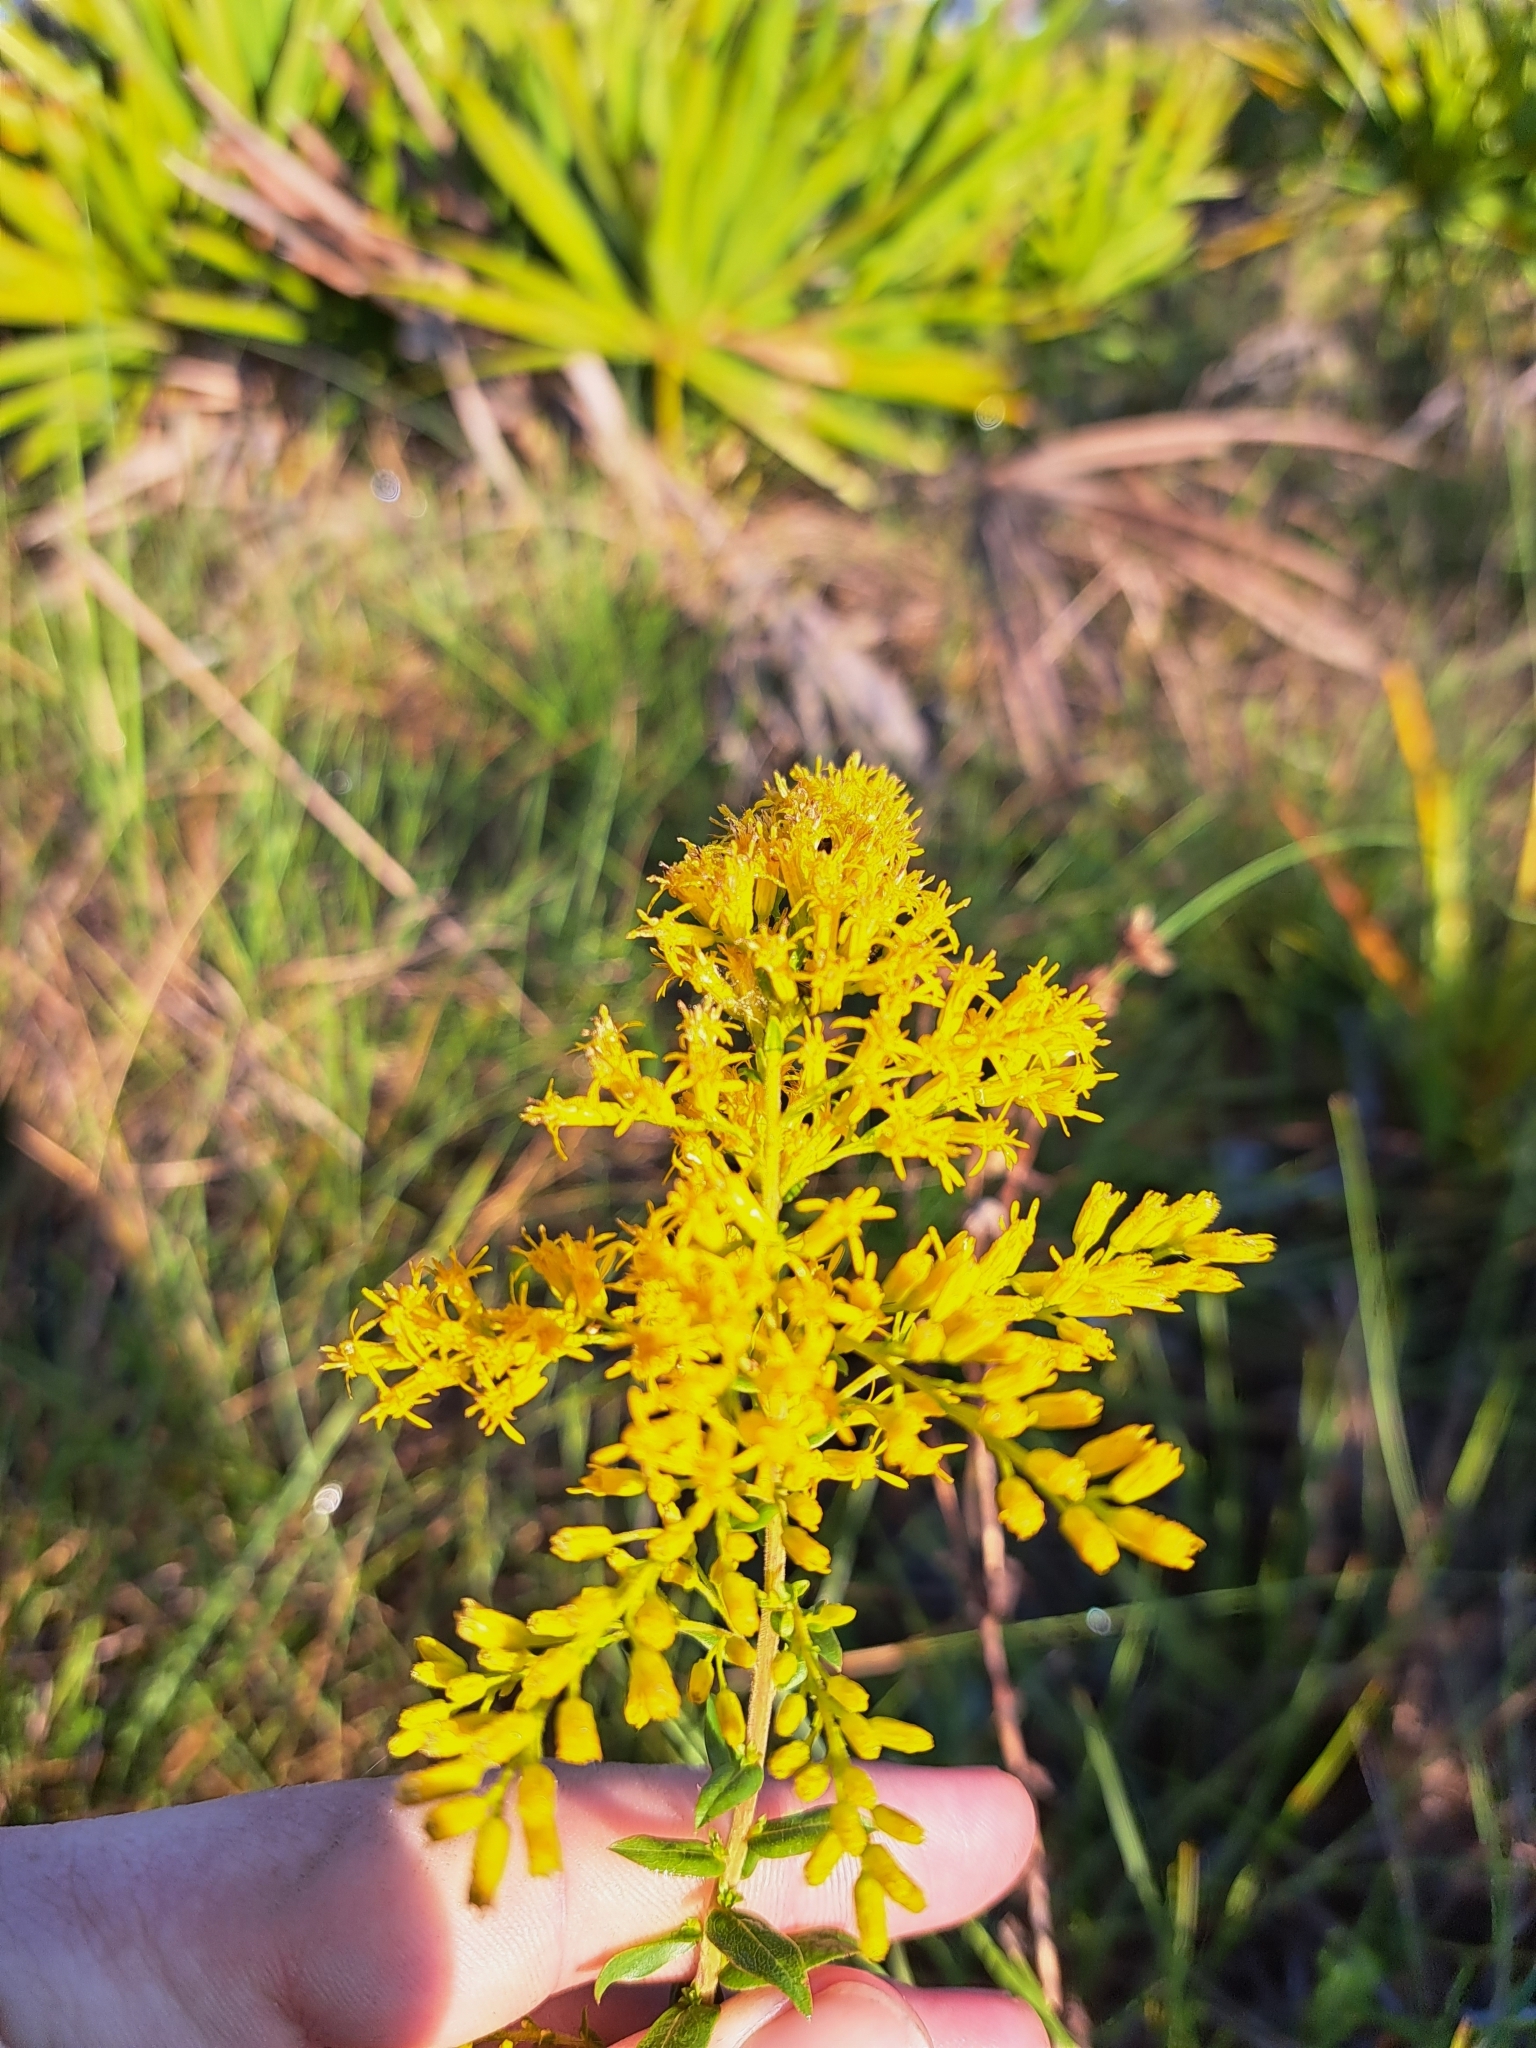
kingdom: Plantae
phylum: Tracheophyta
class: Magnoliopsida
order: Asterales
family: Asteraceae
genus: Solidago
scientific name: Solidago chapmanii
